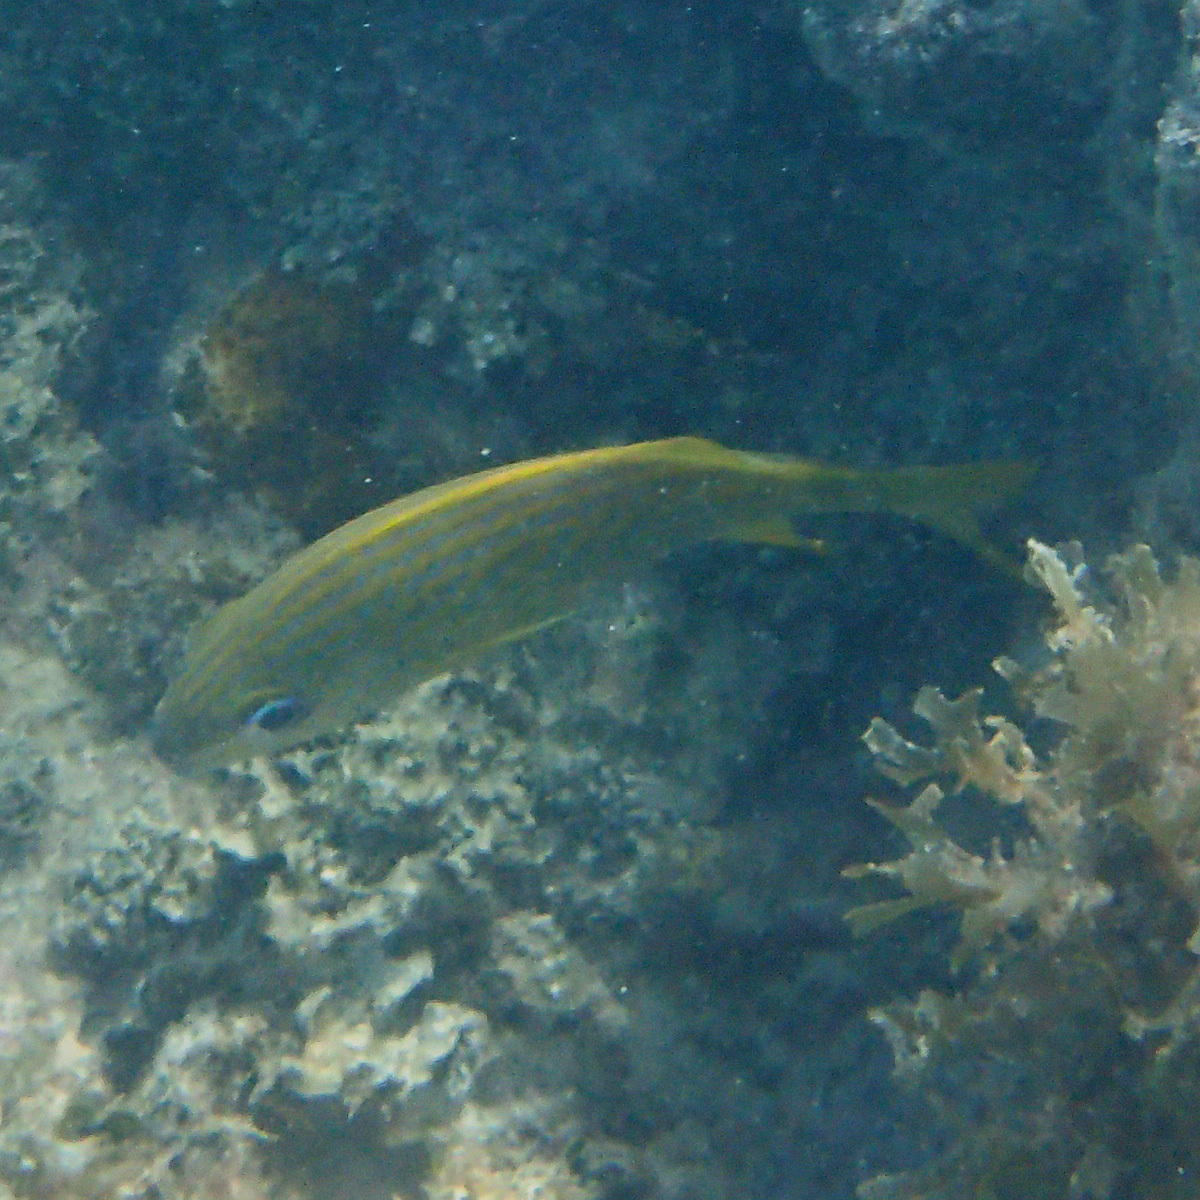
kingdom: Animalia
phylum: Chordata
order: Perciformes
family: Haemulidae
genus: Haemulon
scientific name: Haemulon flavolineatum
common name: French grunt
